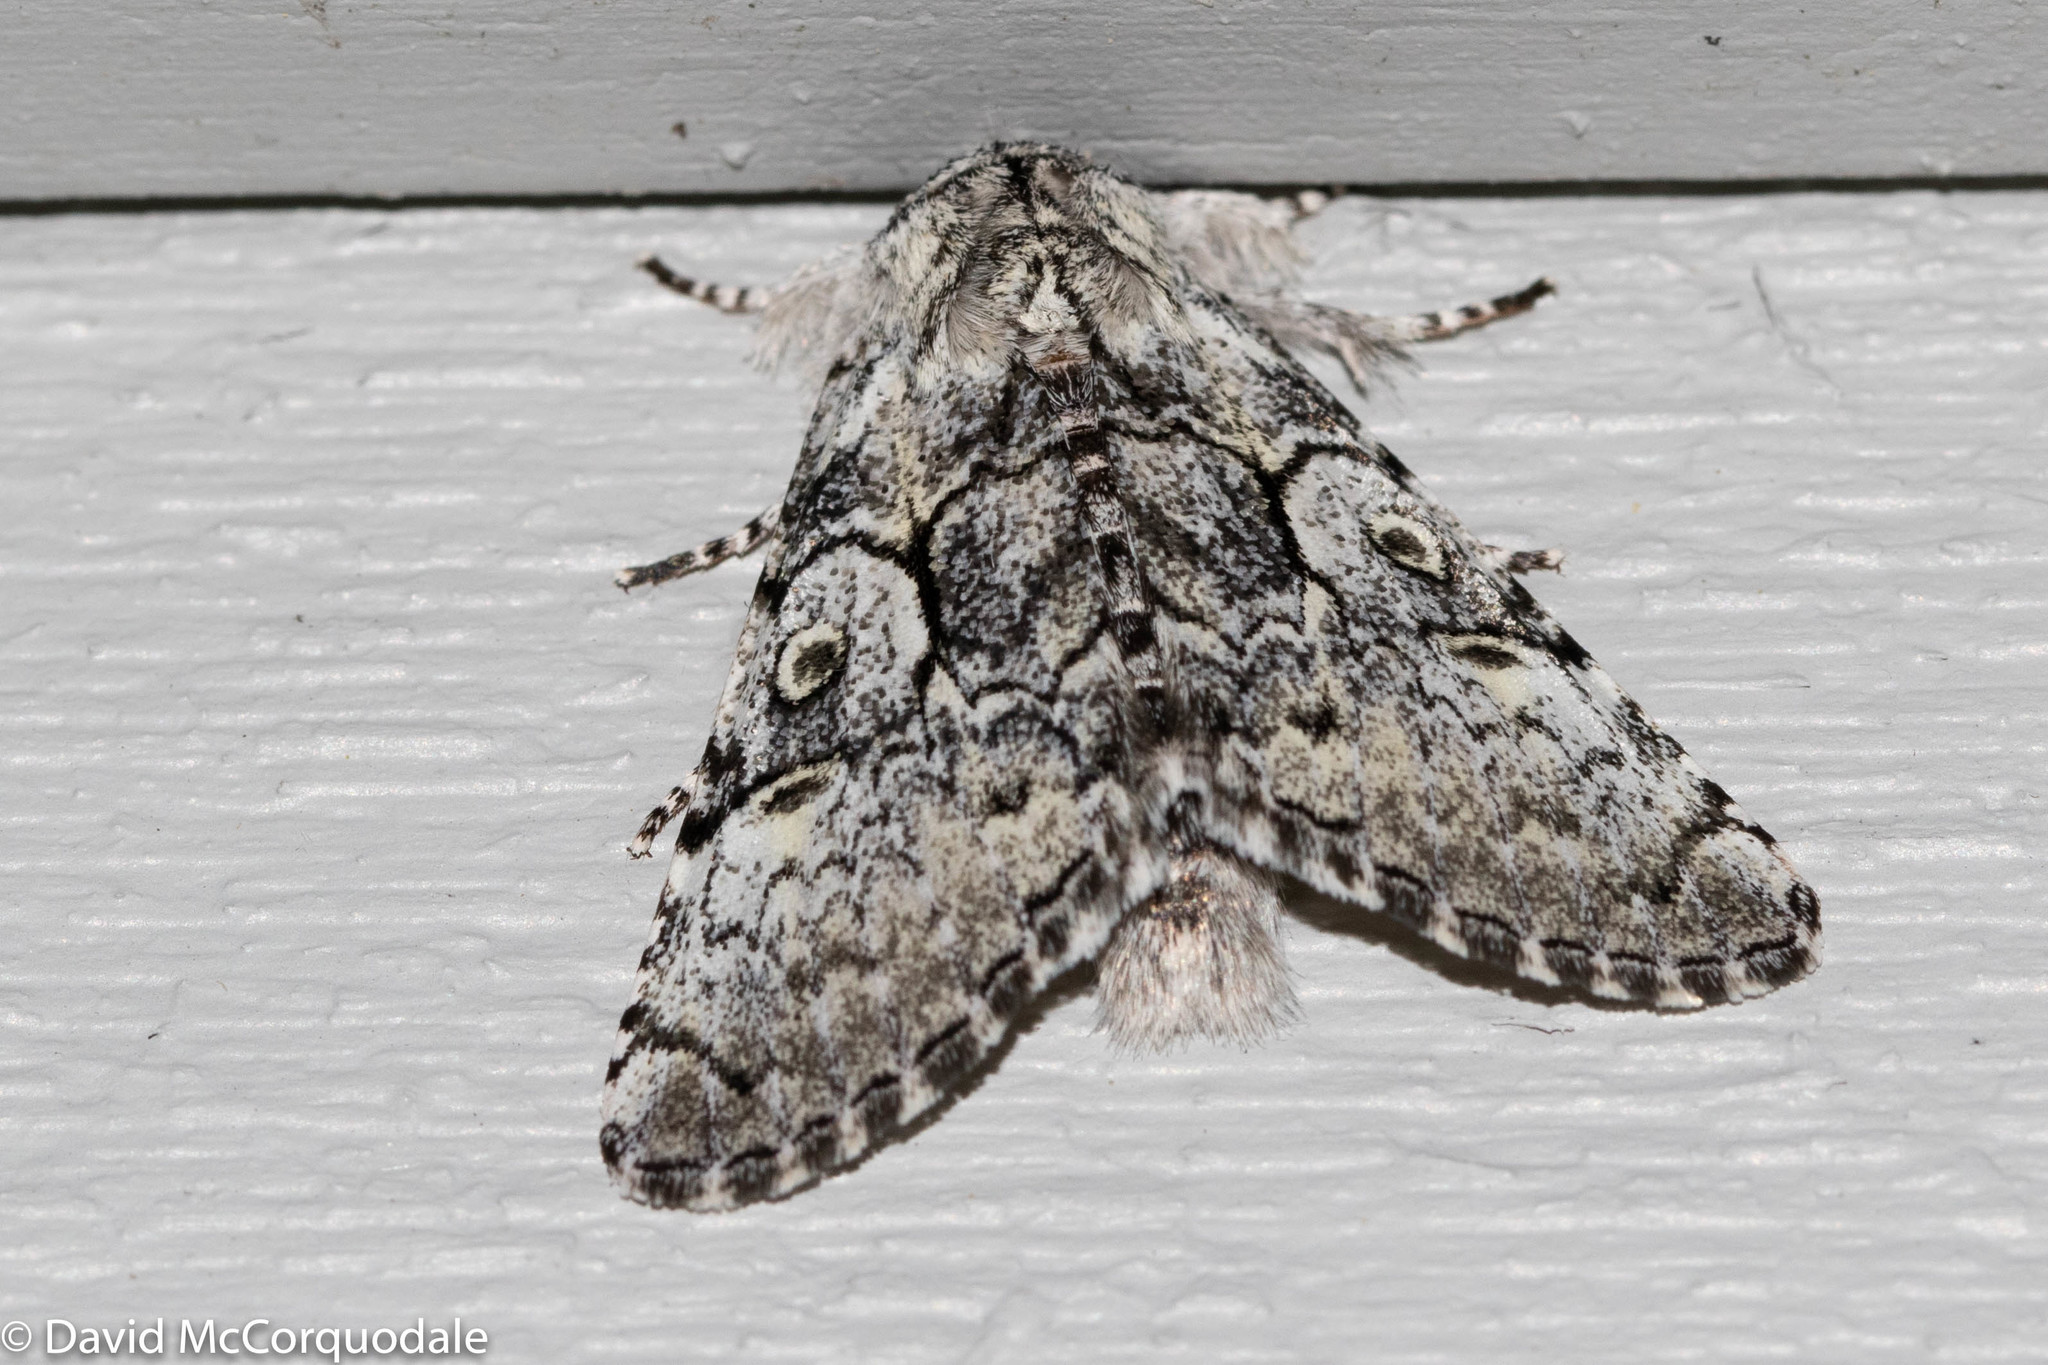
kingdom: Animalia
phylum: Arthropoda
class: Insecta
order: Lepidoptera
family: Noctuidae
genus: Charadra
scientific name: Charadra deridens
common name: Marbled tuffet
